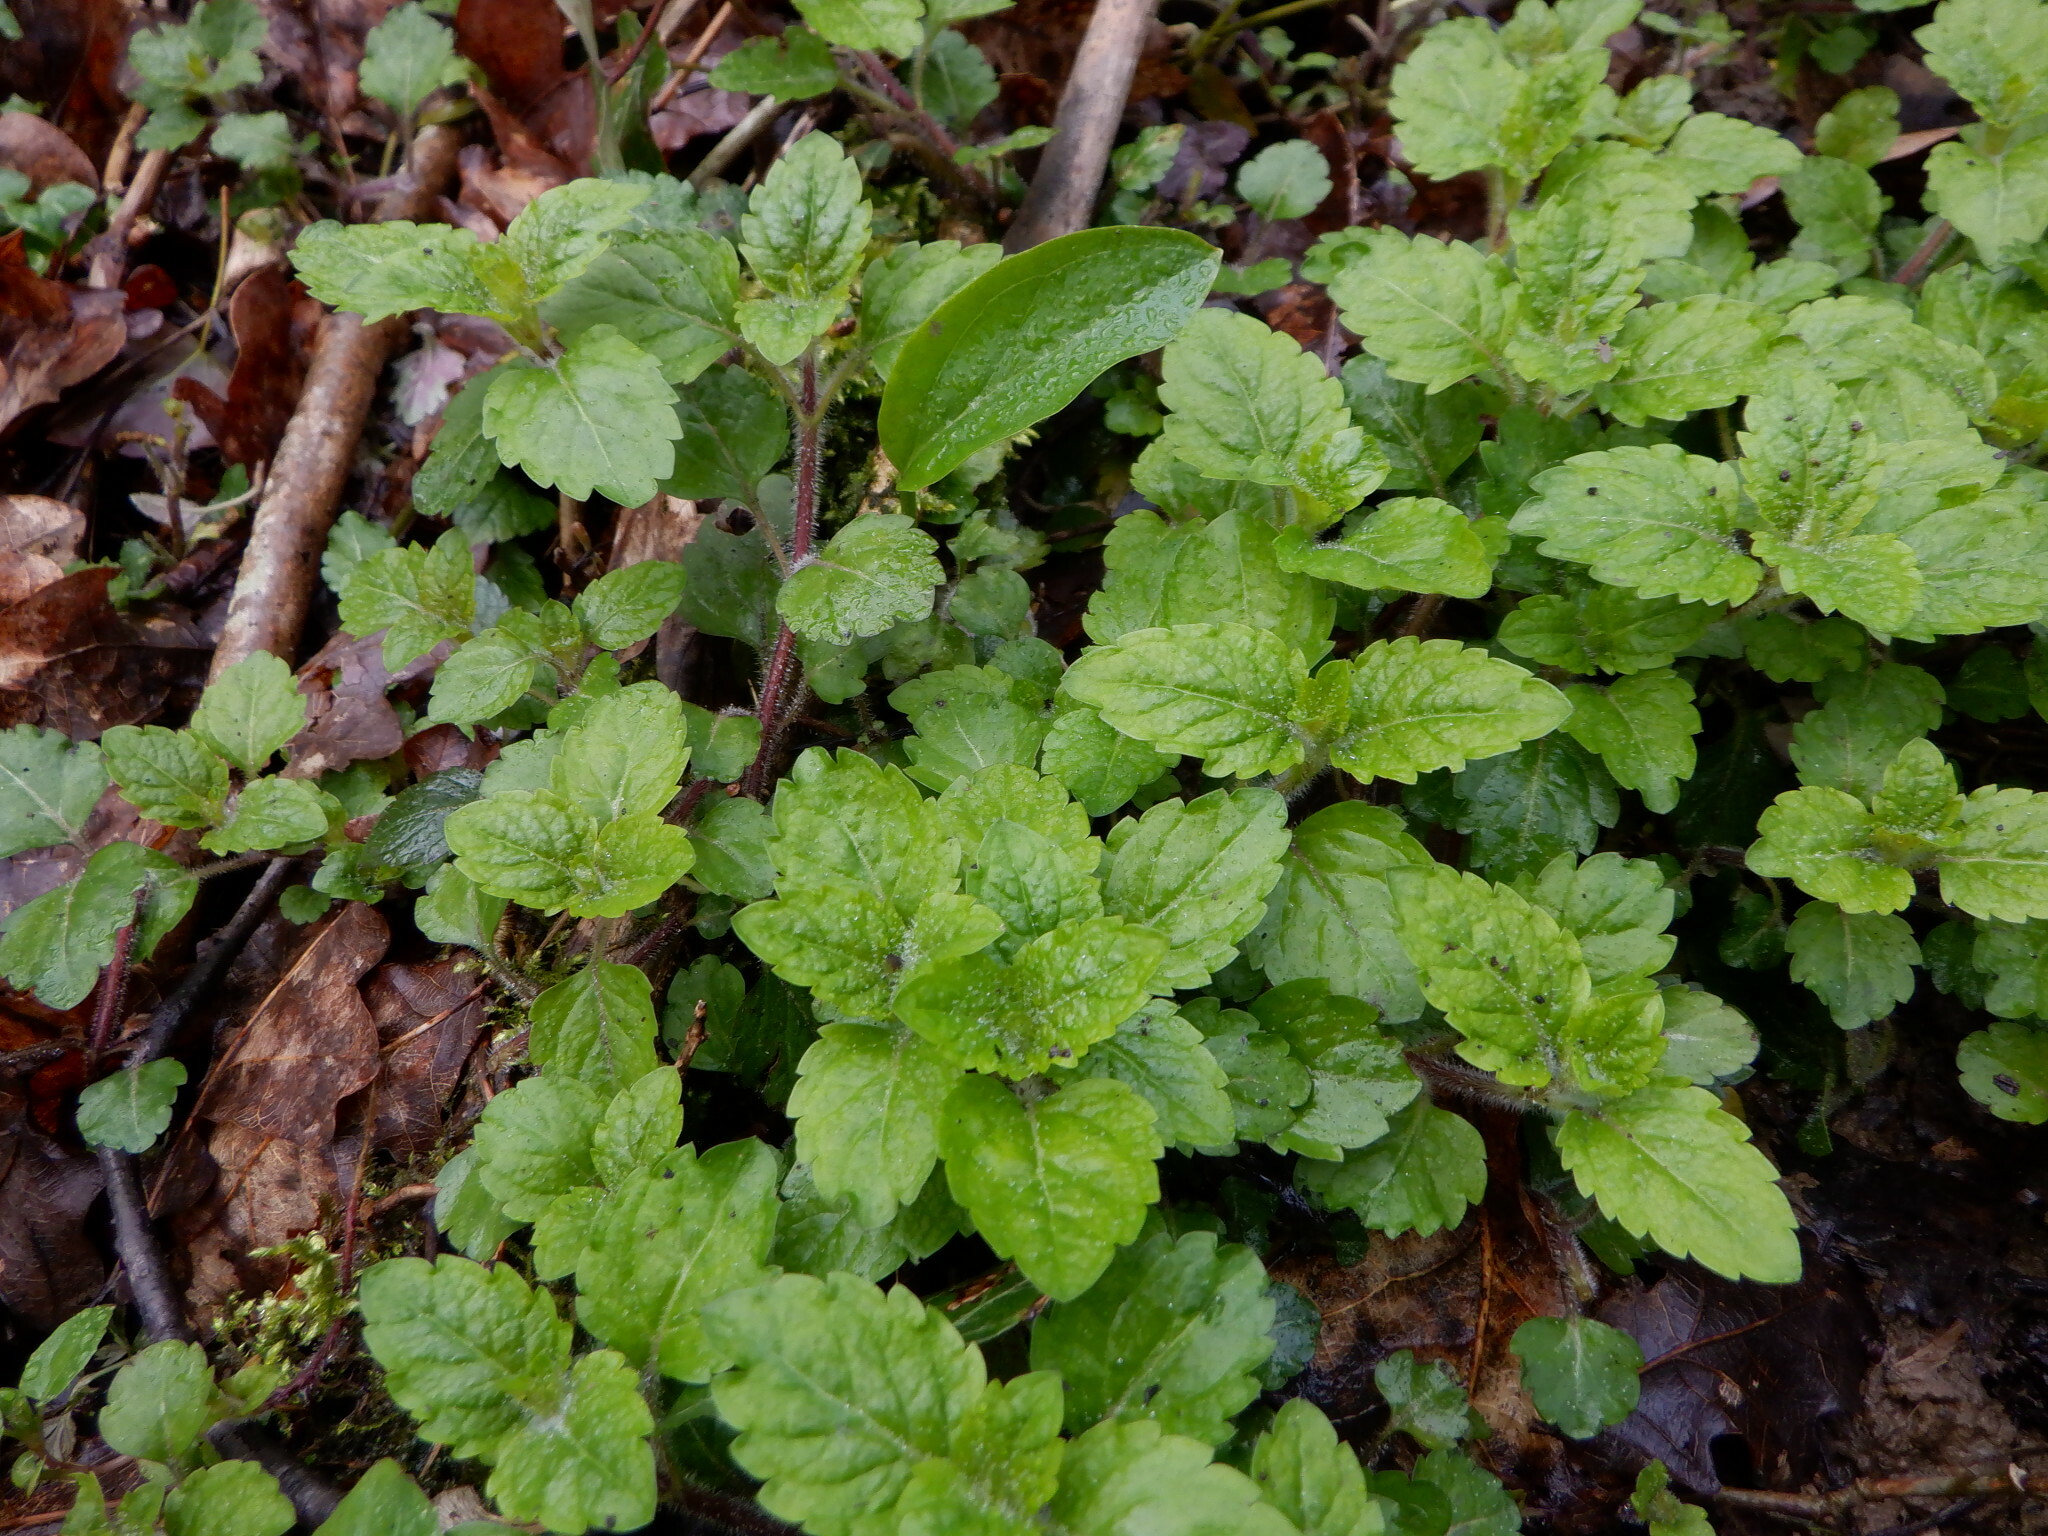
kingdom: Plantae
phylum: Tracheophyta
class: Magnoliopsida
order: Lamiales
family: Plantaginaceae
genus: Veronica
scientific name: Veronica montana
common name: Wood speedwell
